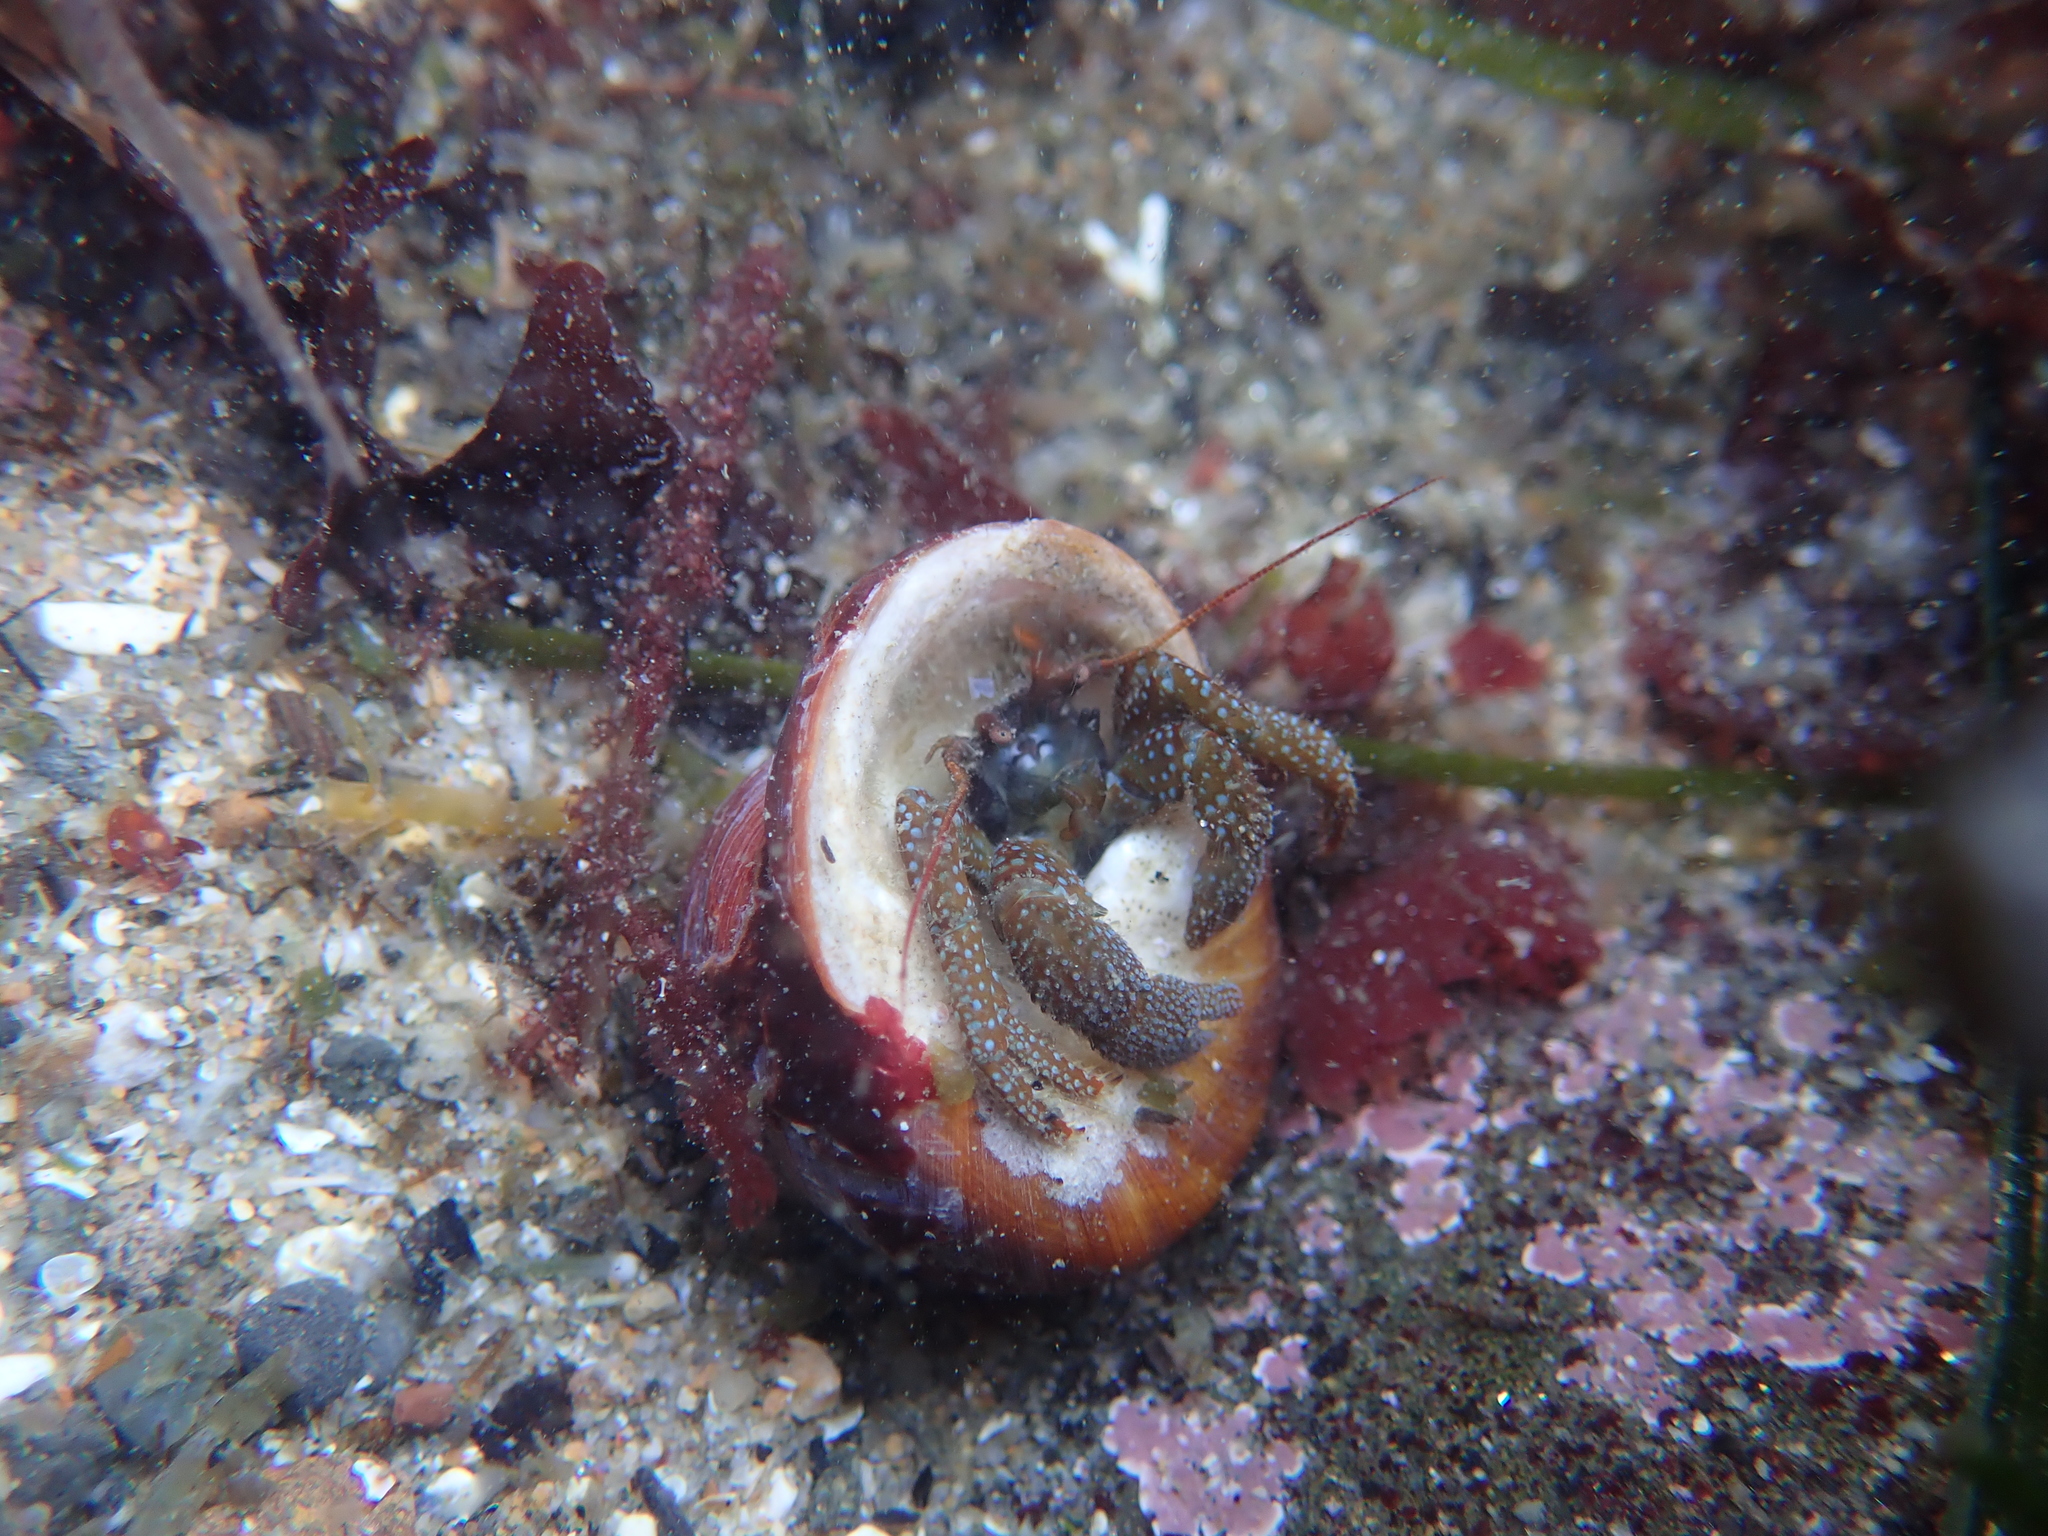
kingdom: Animalia
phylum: Arthropoda
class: Malacostraca
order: Decapoda
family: Paguridae
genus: Pagurus
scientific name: Pagurus granosimanus
